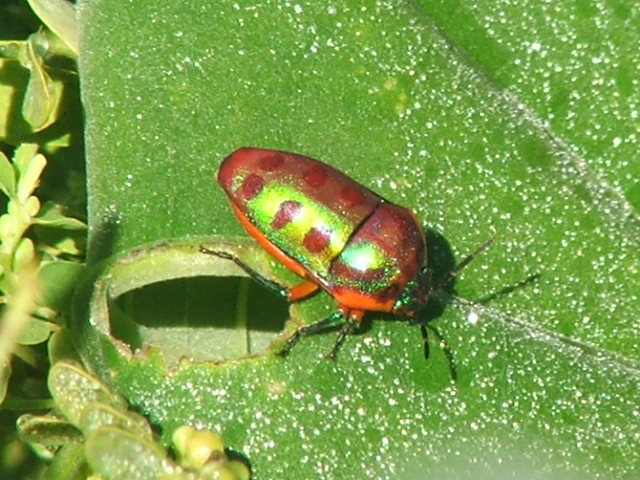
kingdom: Animalia
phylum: Arthropoda
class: Insecta
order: Hemiptera
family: Scutelleridae
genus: Calidea
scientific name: Calidea
